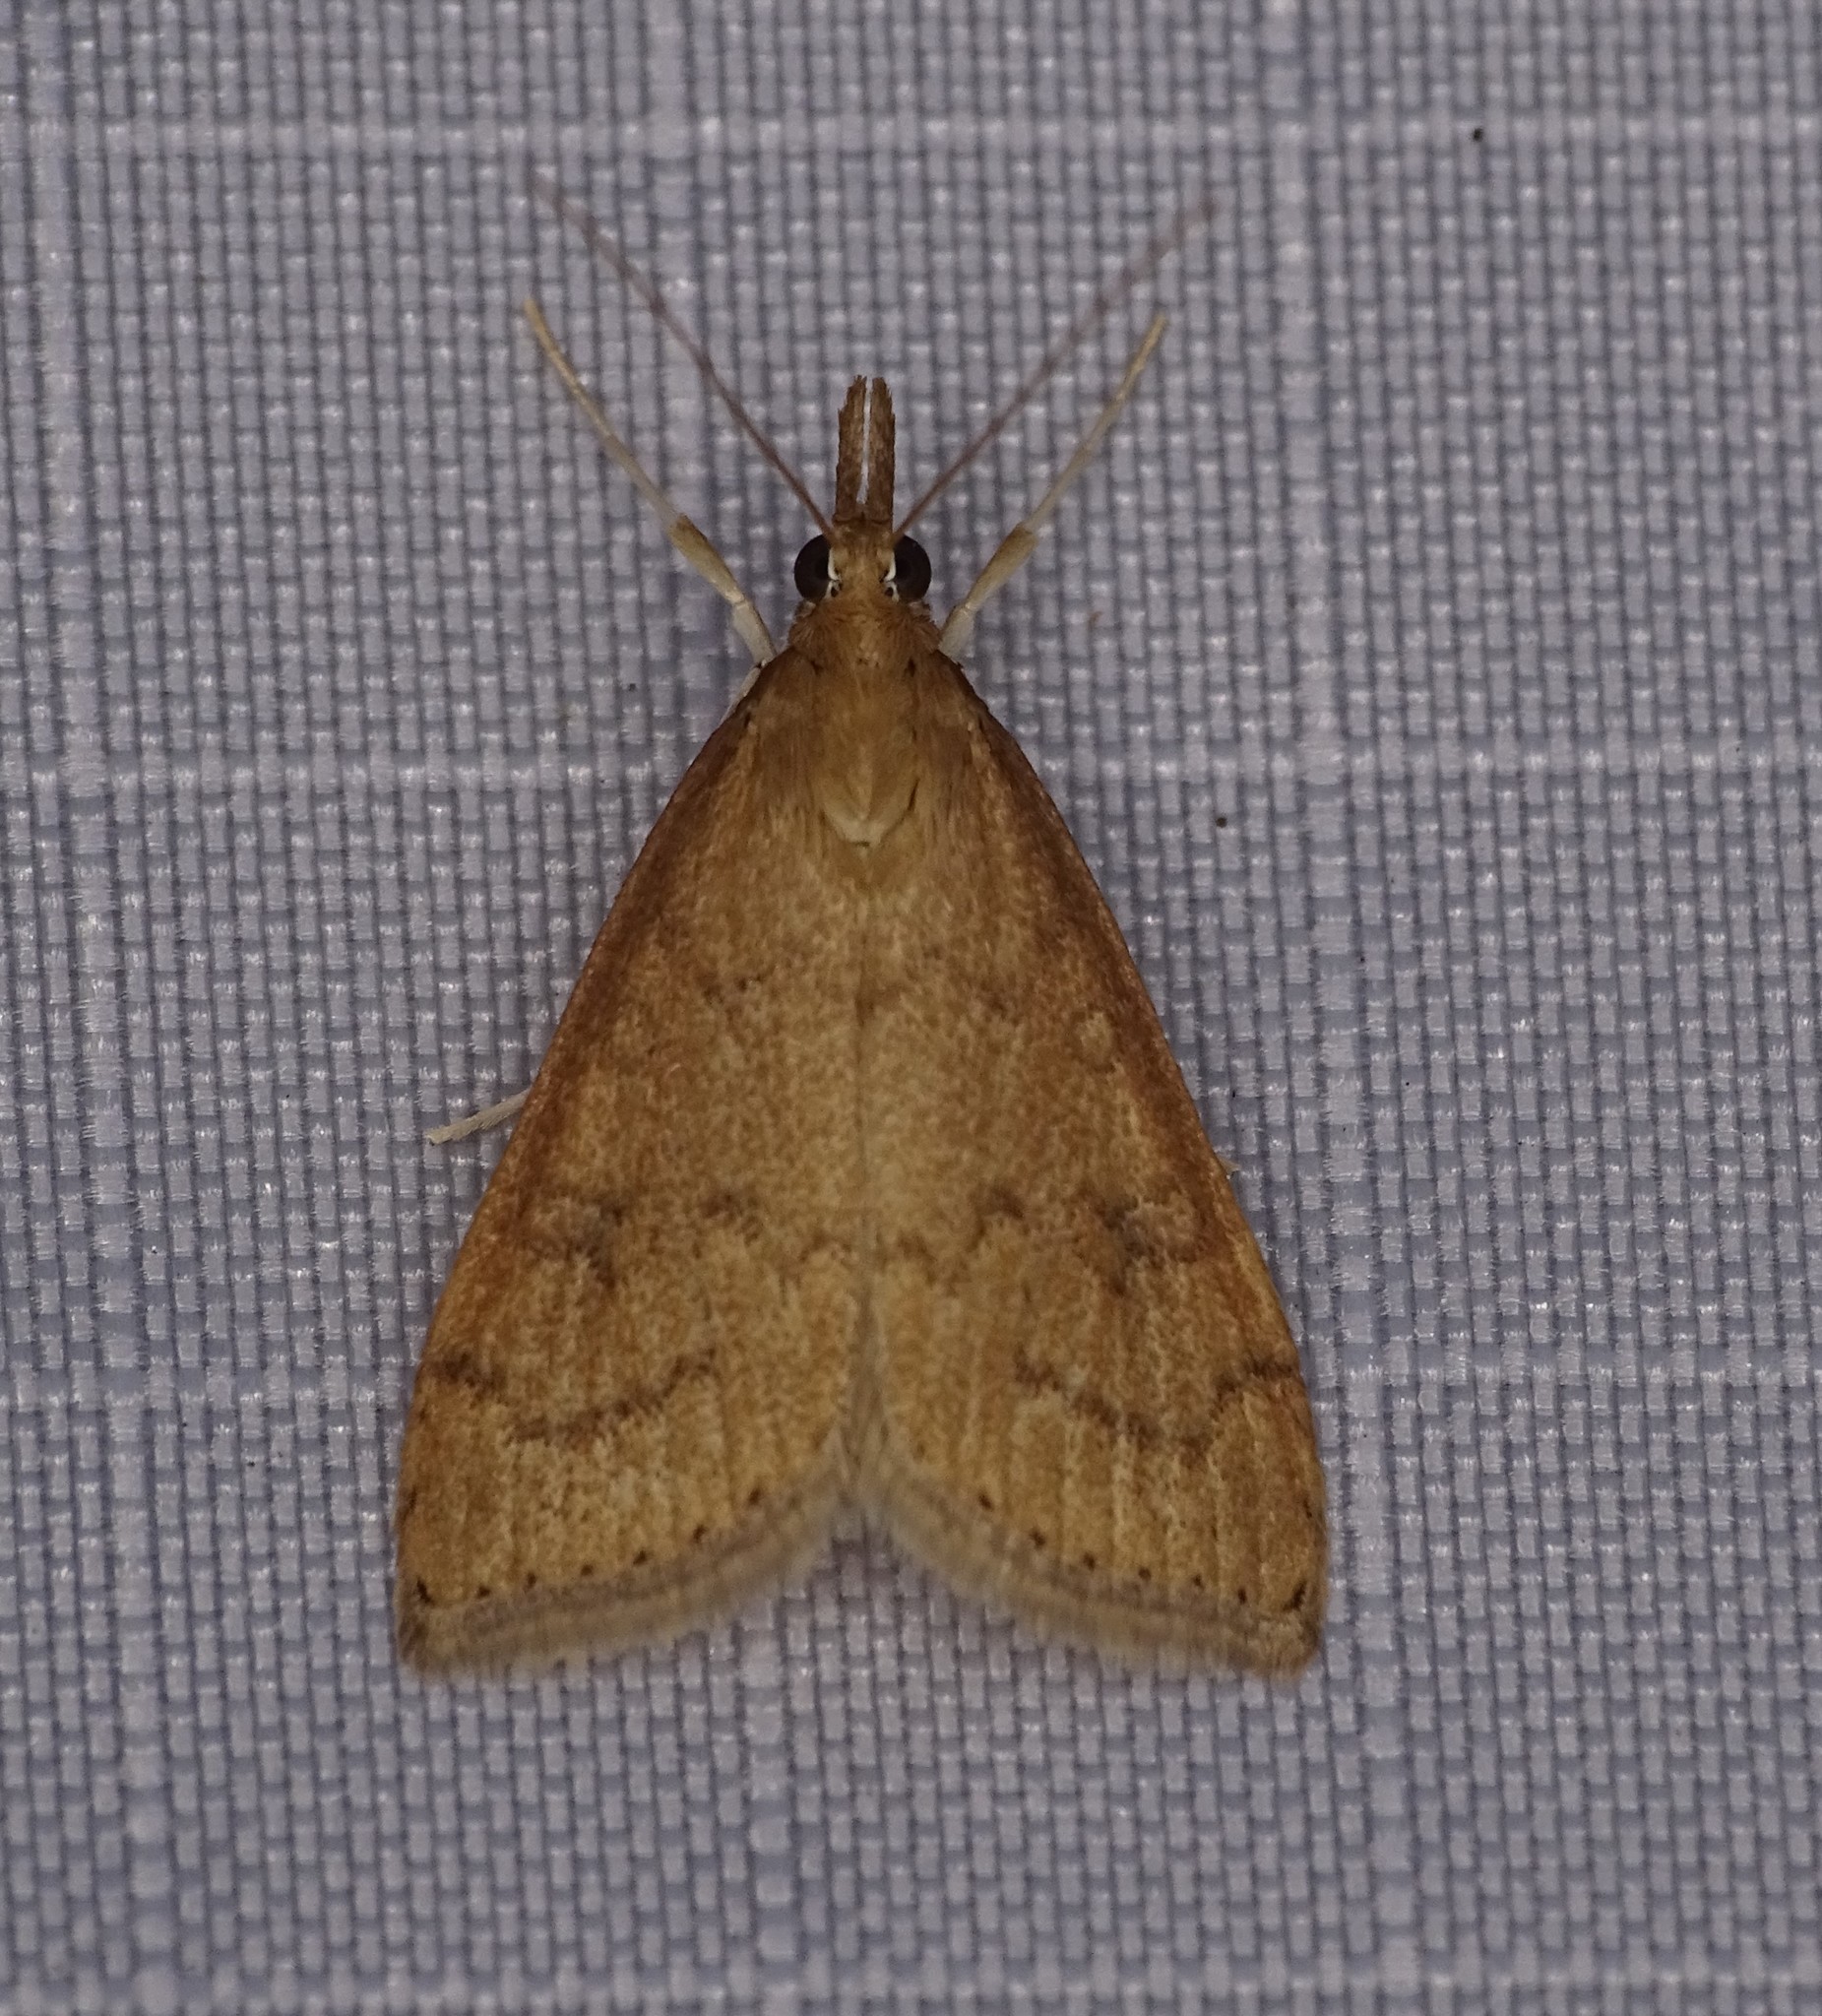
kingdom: Animalia
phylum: Arthropoda
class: Insecta
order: Lepidoptera
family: Crambidae
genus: Udea
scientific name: Udea rubigalis
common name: Celery leaftier moth
